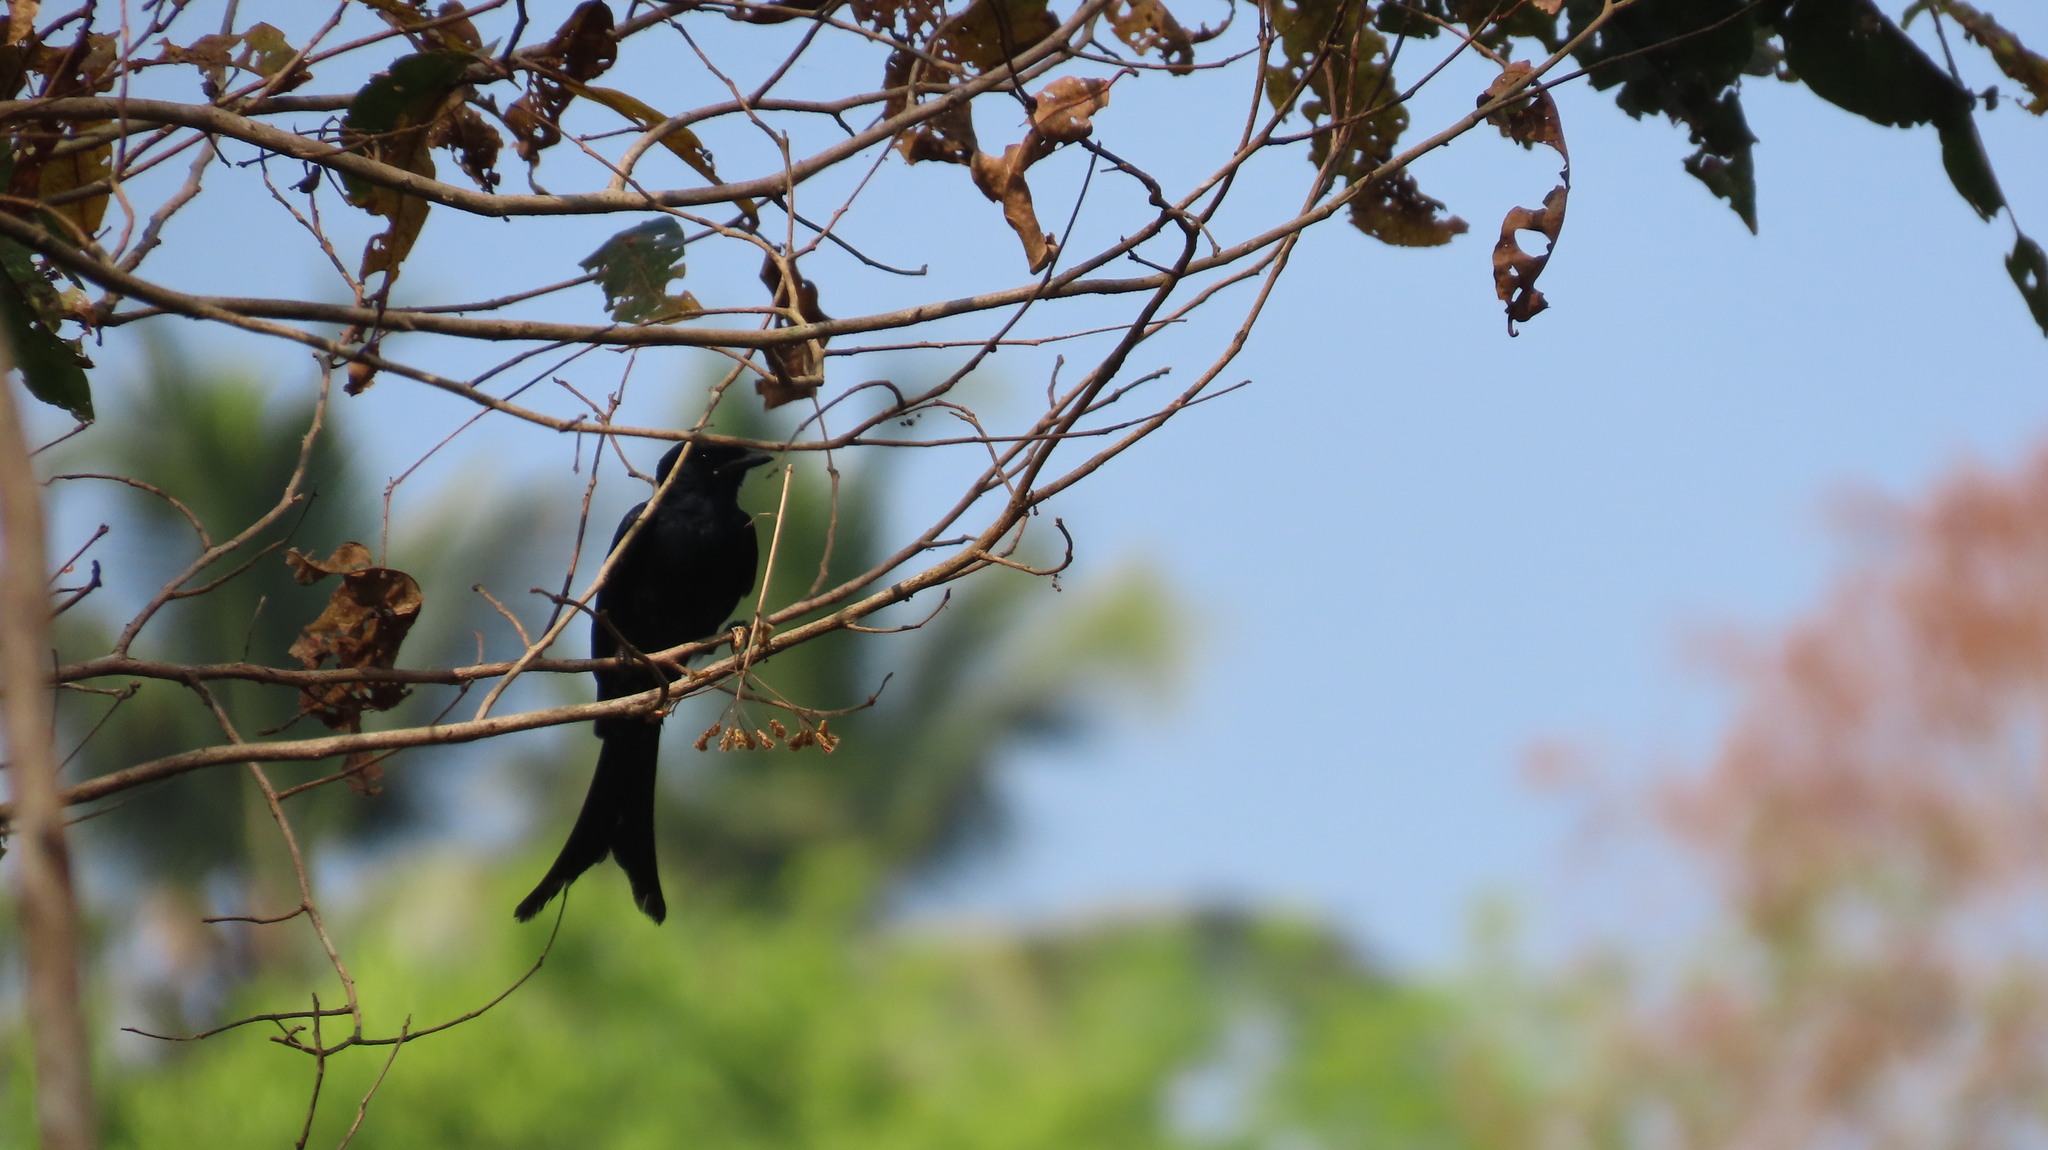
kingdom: Animalia
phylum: Chordata
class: Aves
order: Passeriformes
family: Dicruridae
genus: Dicrurus
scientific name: Dicrurus macrocercus
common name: Black drongo
